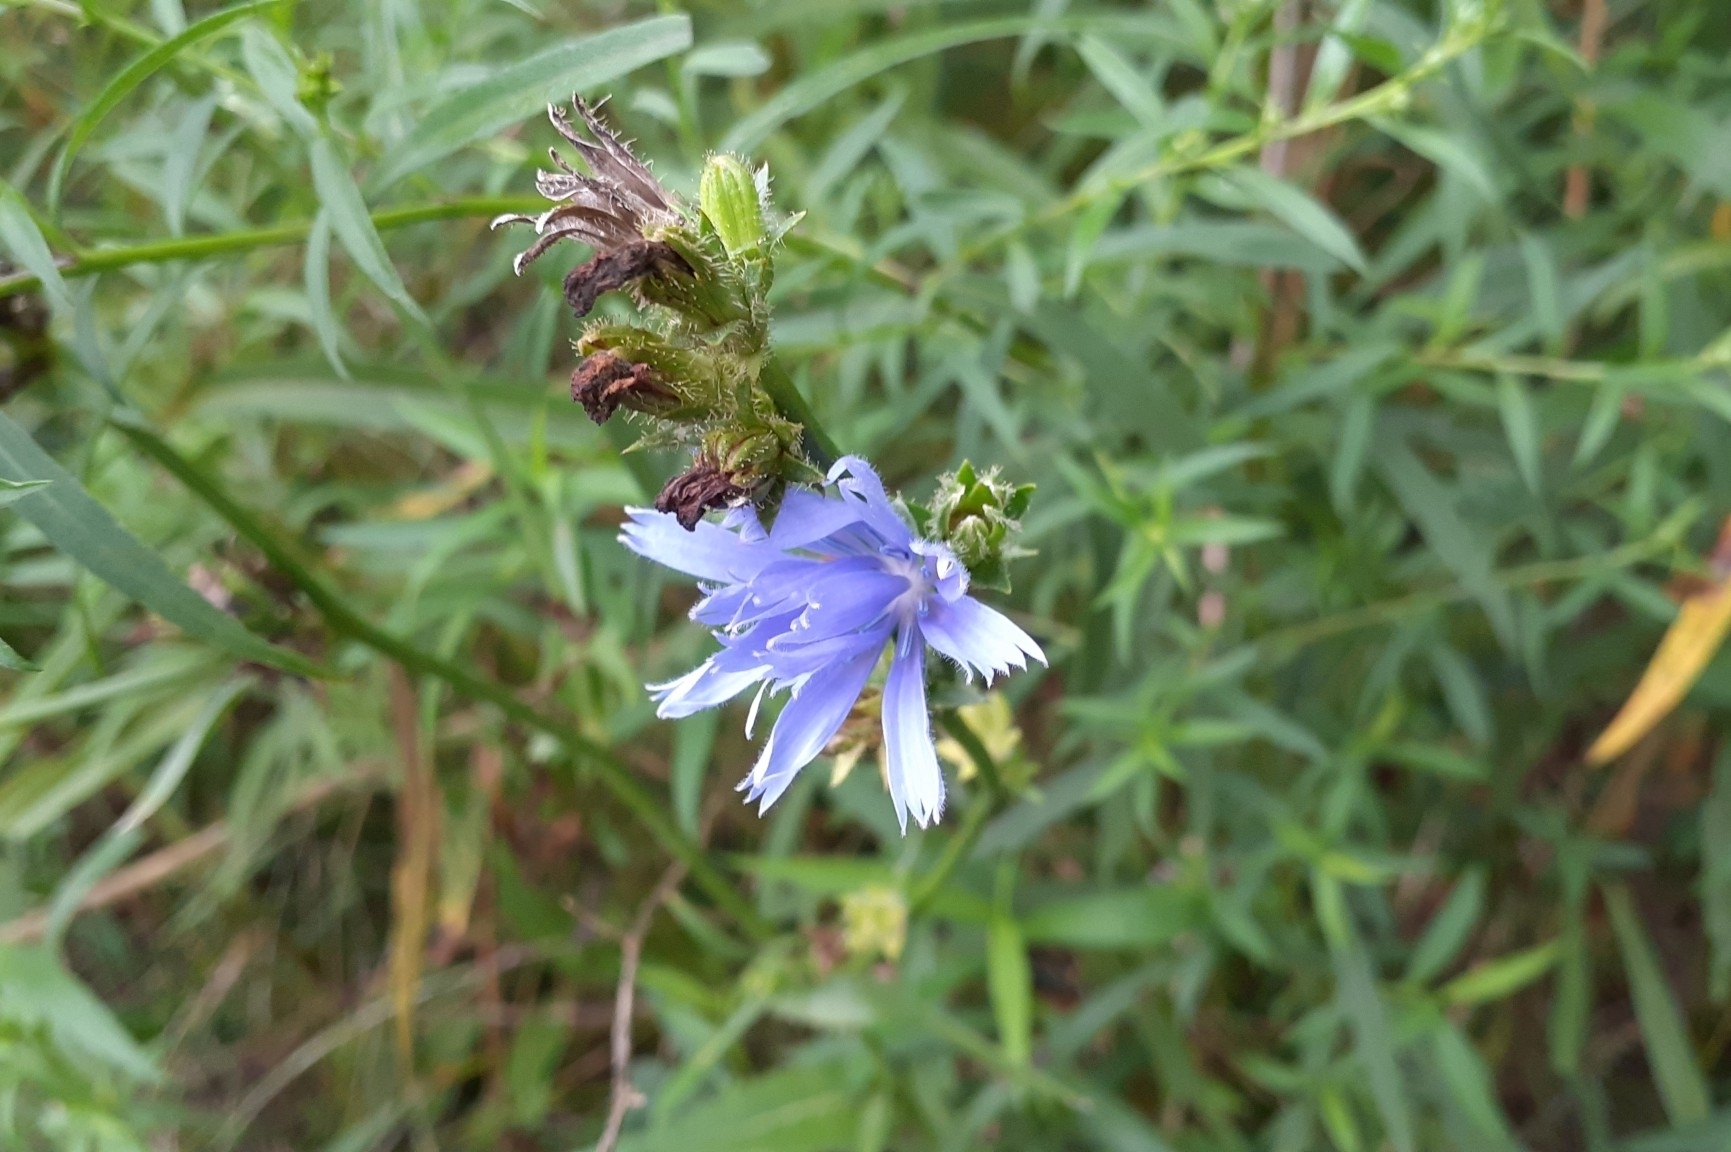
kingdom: Plantae
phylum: Tracheophyta
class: Magnoliopsida
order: Asterales
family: Asteraceae
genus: Cichorium
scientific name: Cichorium intybus
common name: Chicory
